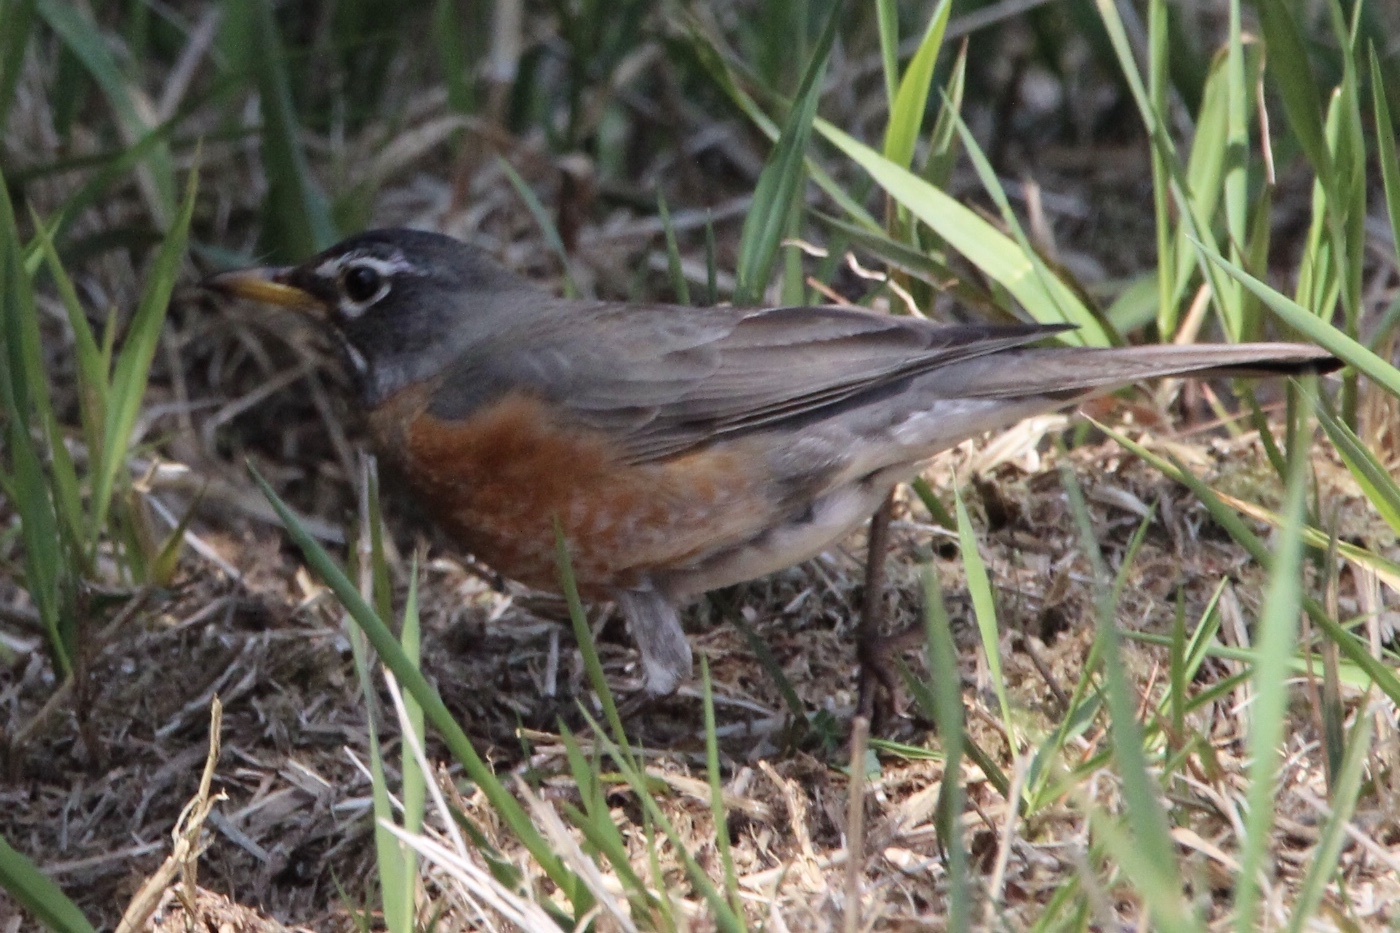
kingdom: Animalia
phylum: Chordata
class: Aves
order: Passeriformes
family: Turdidae
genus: Turdus
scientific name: Turdus migratorius
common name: American robin
